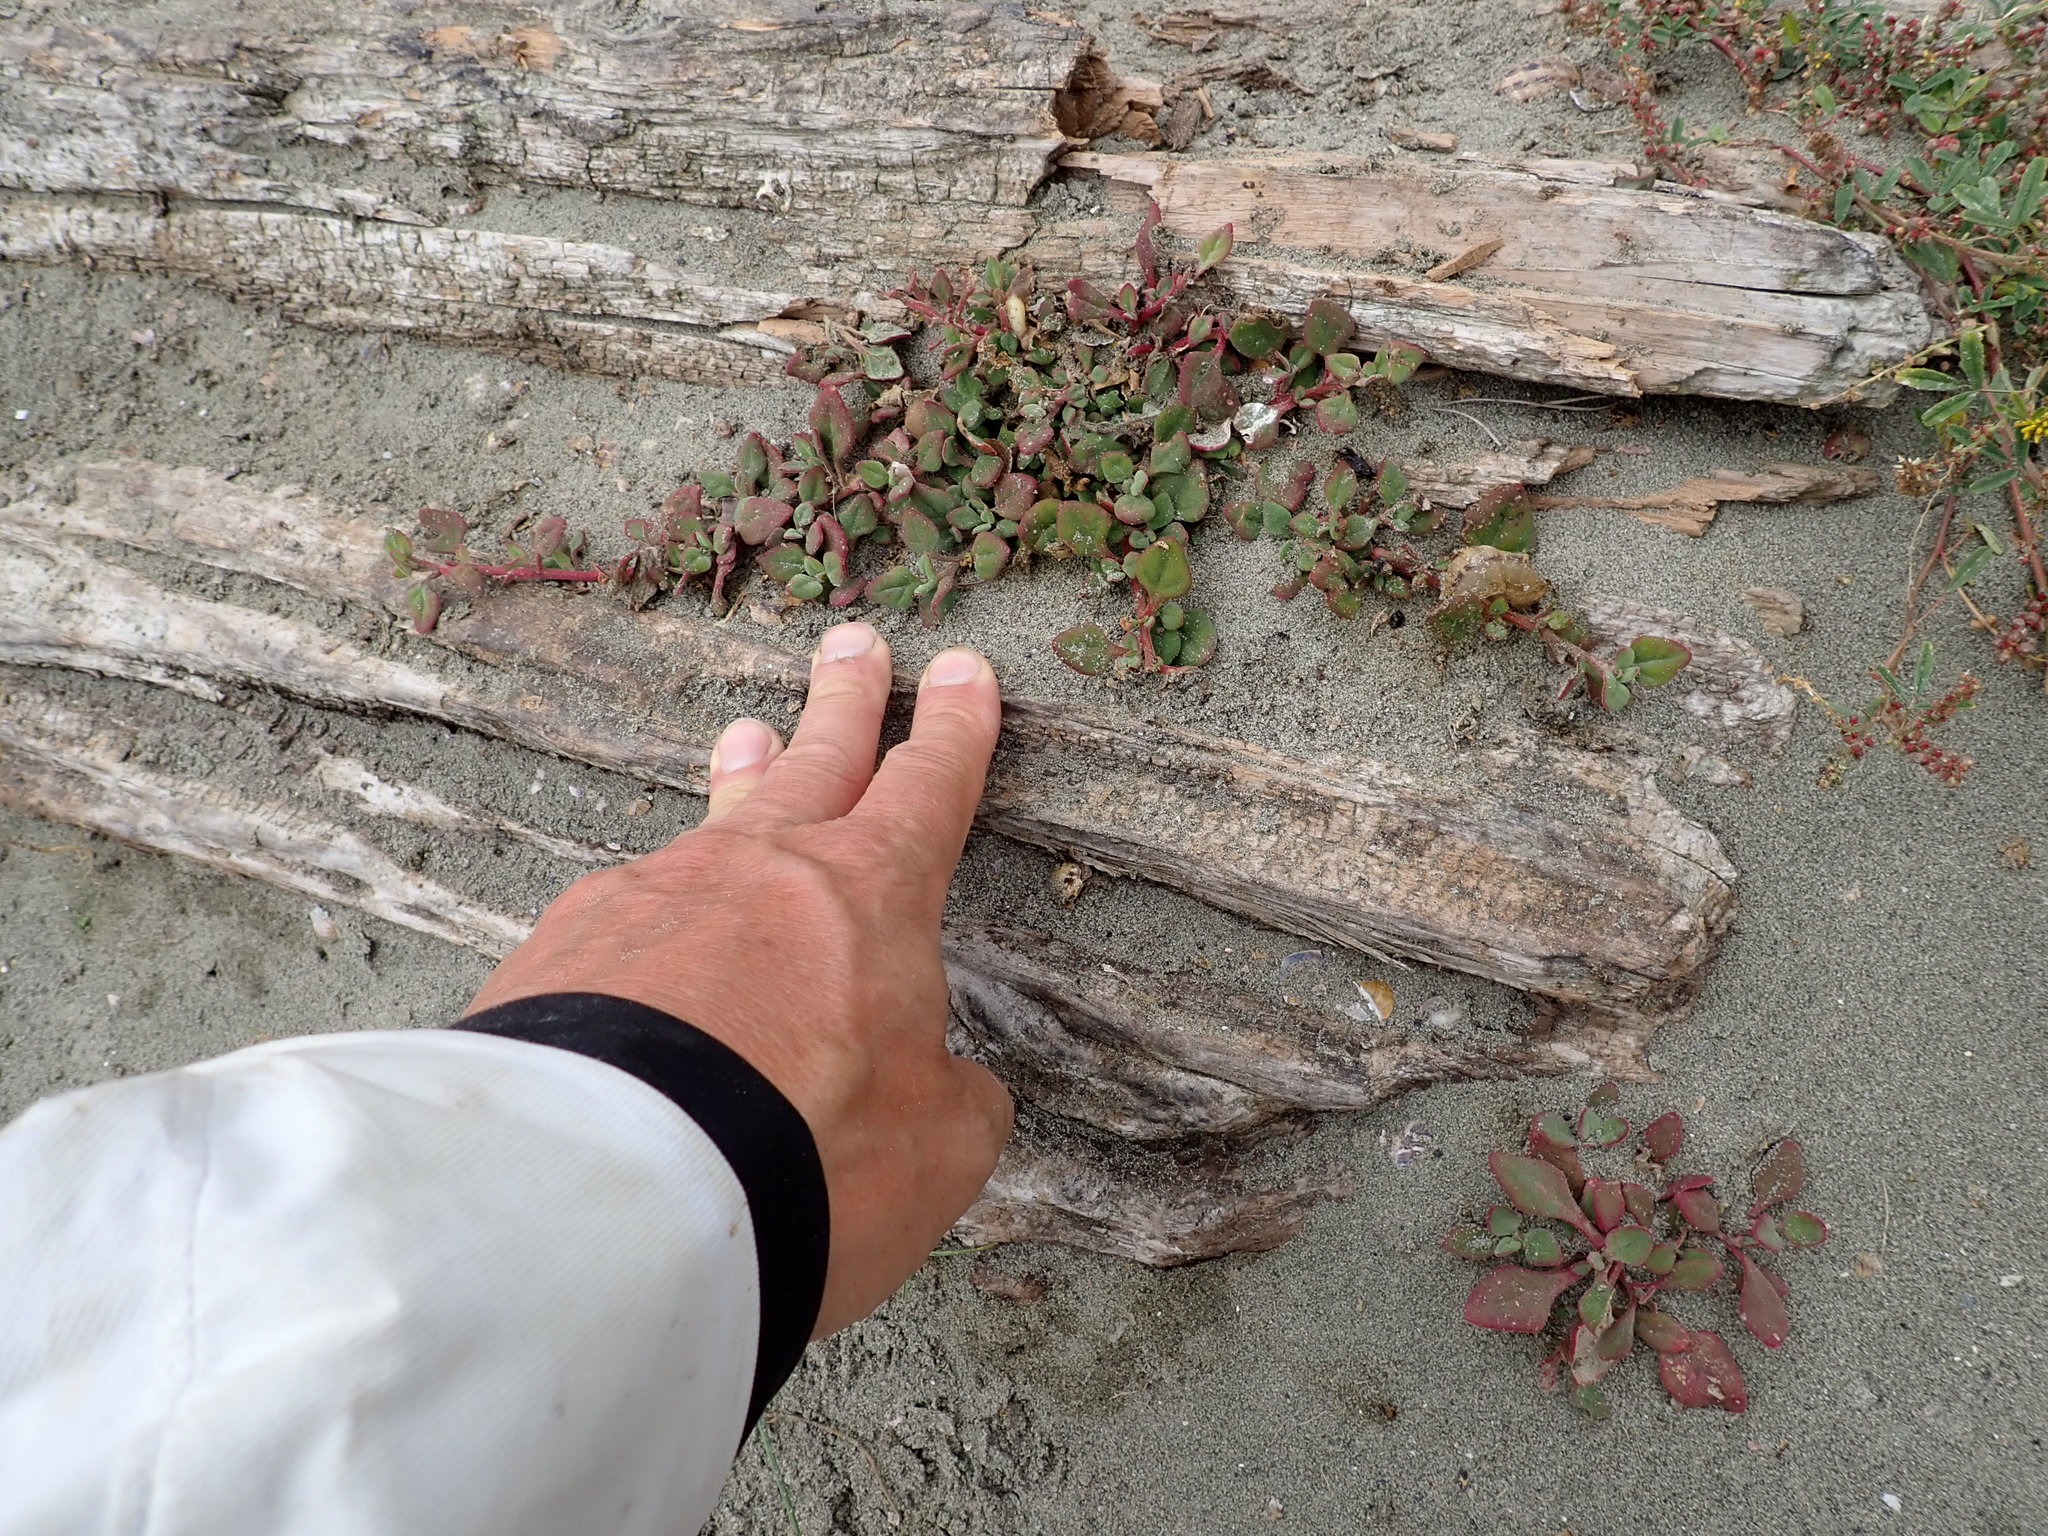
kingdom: Plantae
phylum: Tracheophyta
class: Magnoliopsida
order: Caryophyllales
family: Aizoaceae
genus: Tetragonia
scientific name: Tetragonia tetragonoides
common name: New zealand-spinach
